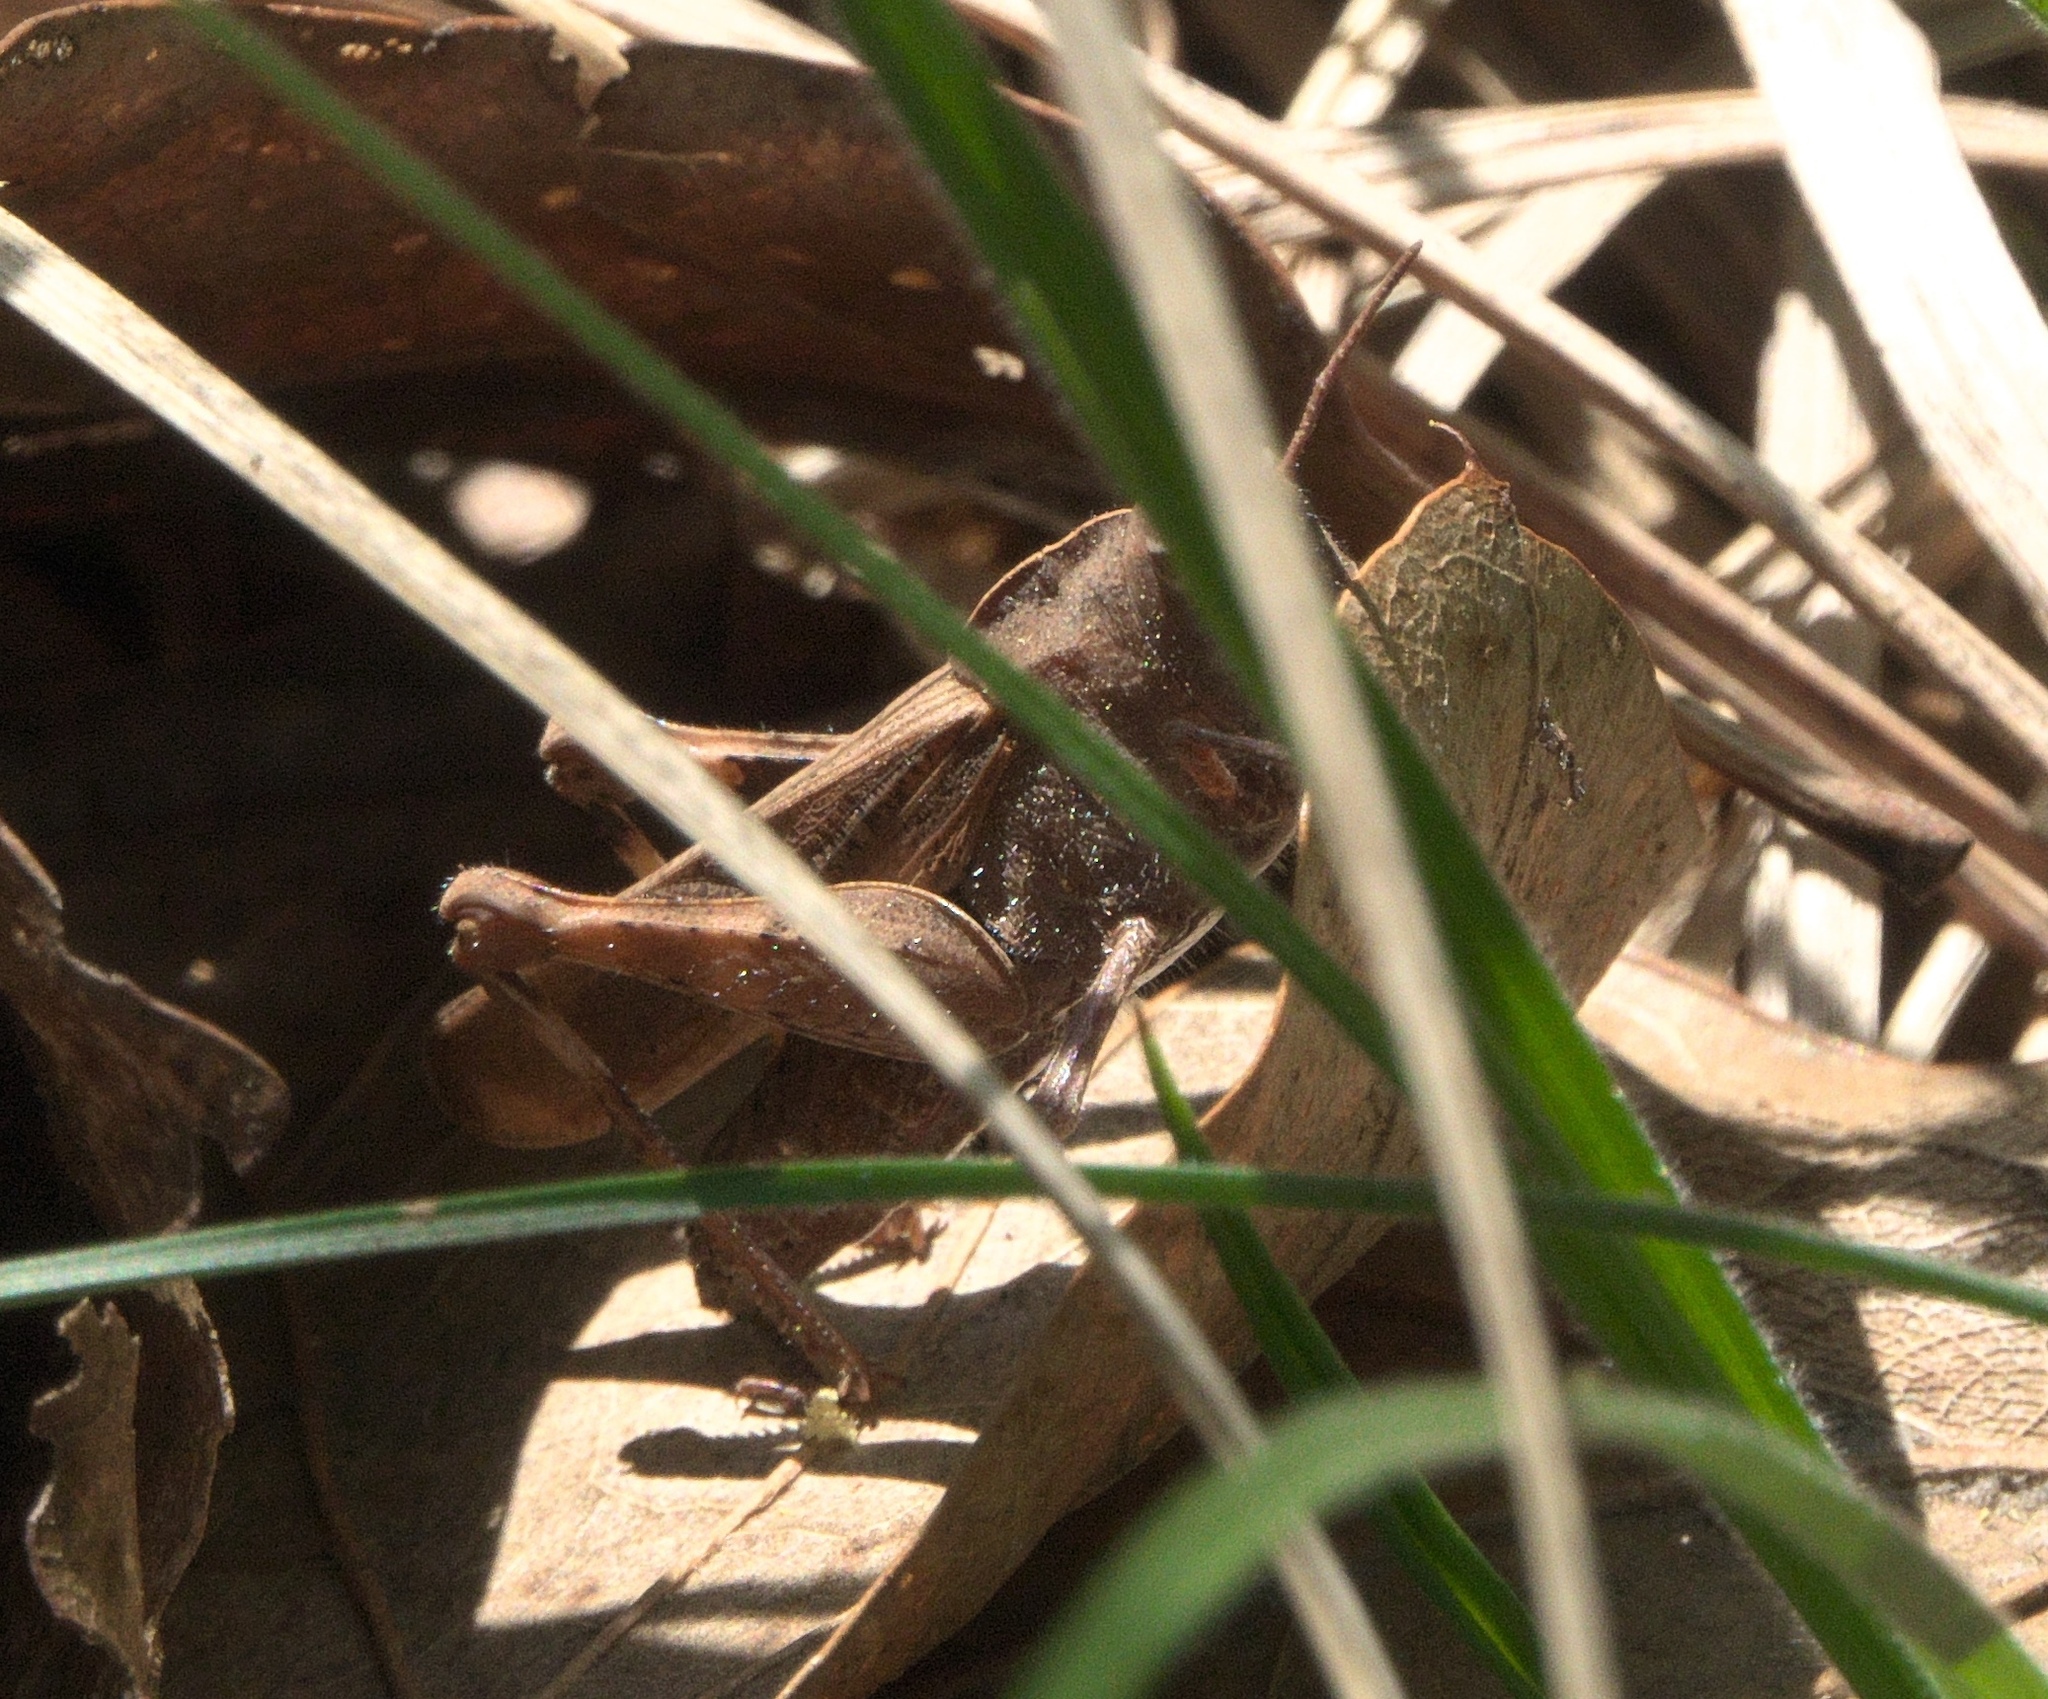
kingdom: Animalia
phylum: Arthropoda
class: Insecta
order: Orthoptera
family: Acrididae
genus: Chortophaga
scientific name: Chortophaga viridifasciata
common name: Green-striped grasshopper
